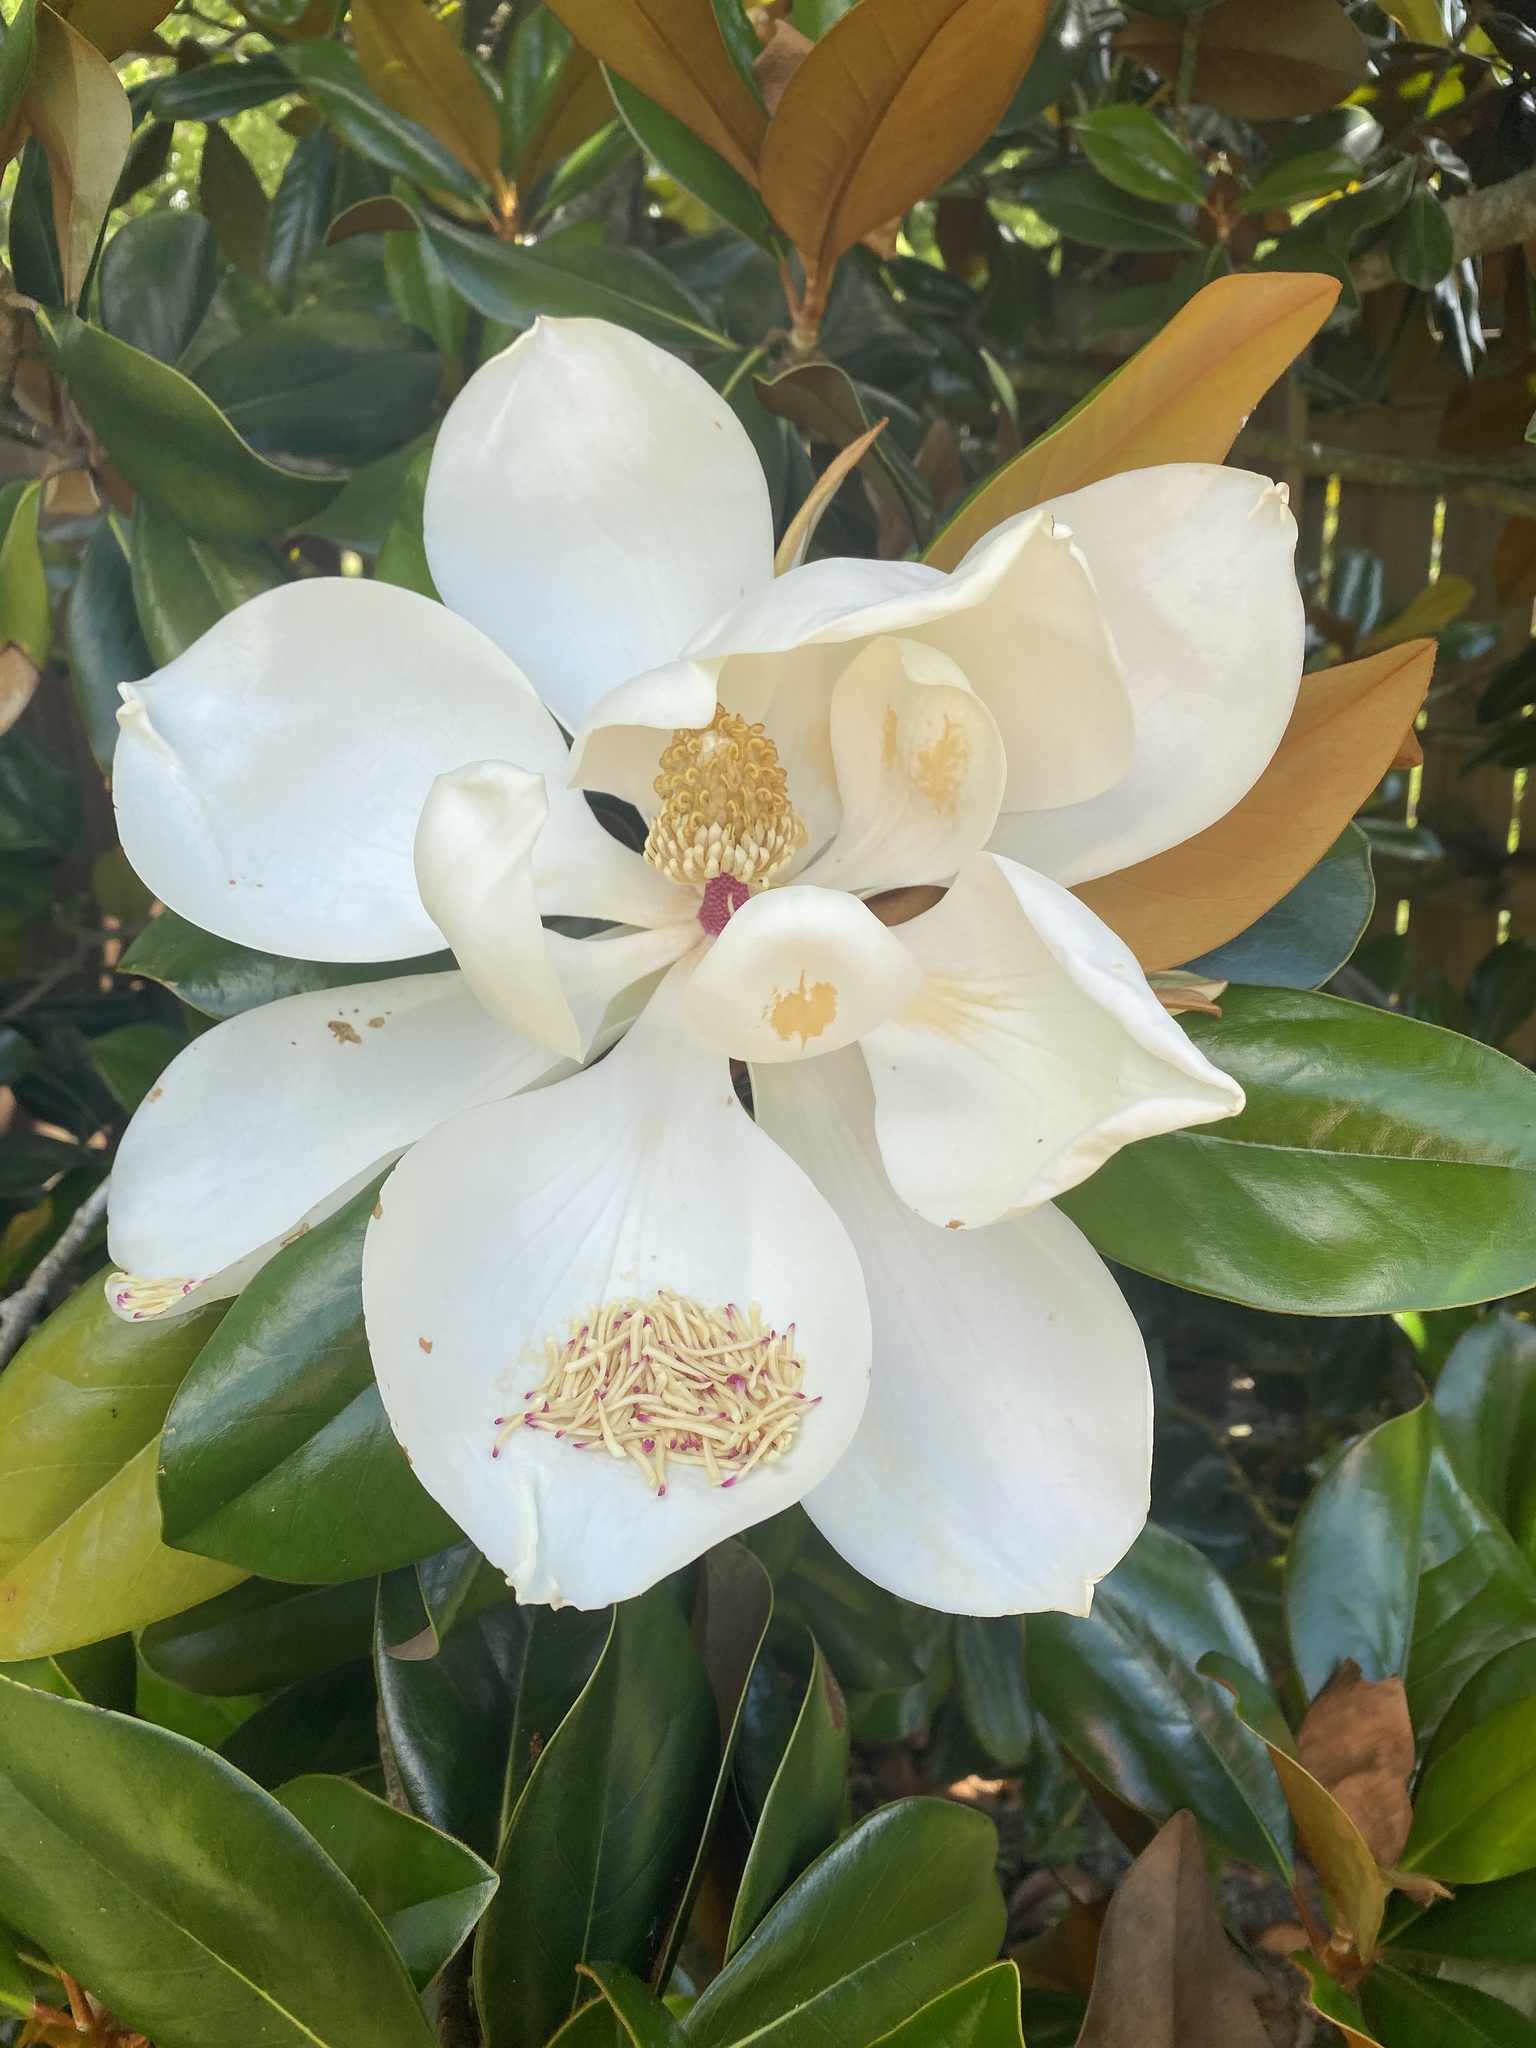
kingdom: Plantae
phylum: Tracheophyta
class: Magnoliopsida
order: Magnoliales
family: Magnoliaceae
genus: Magnolia
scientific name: Magnolia grandiflora
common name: Southern magnolia
